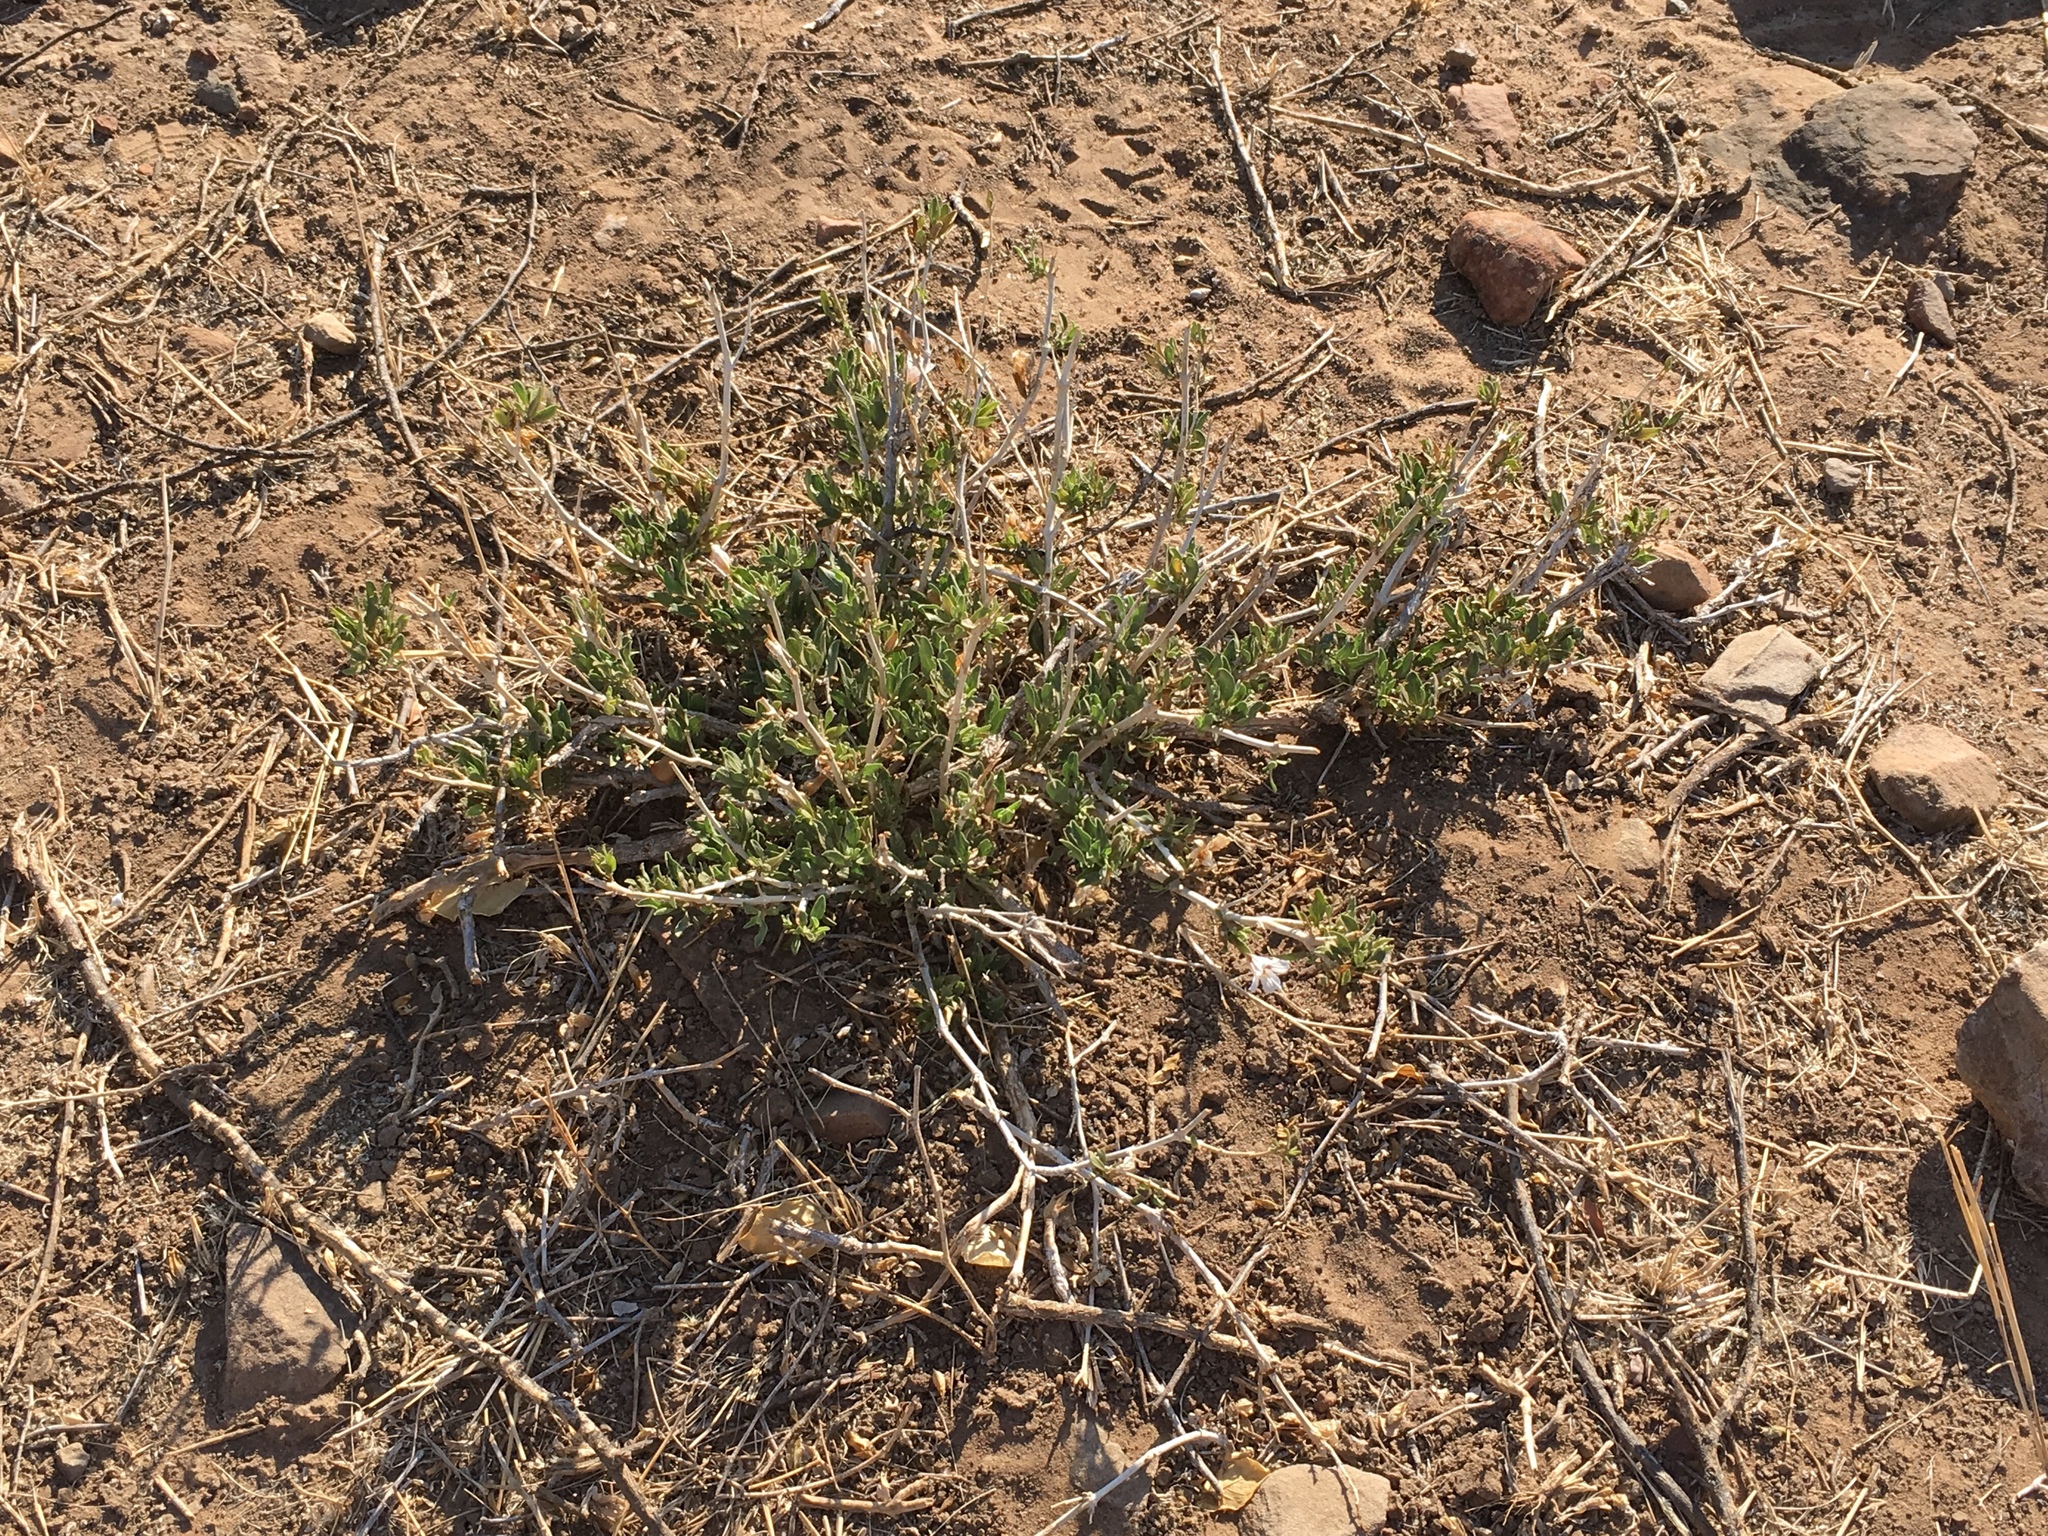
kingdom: Plantae
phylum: Tracheophyta
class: Magnoliopsida
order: Lamiales
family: Acanthaceae
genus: Petalidium
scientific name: Petalidium aromaticum
